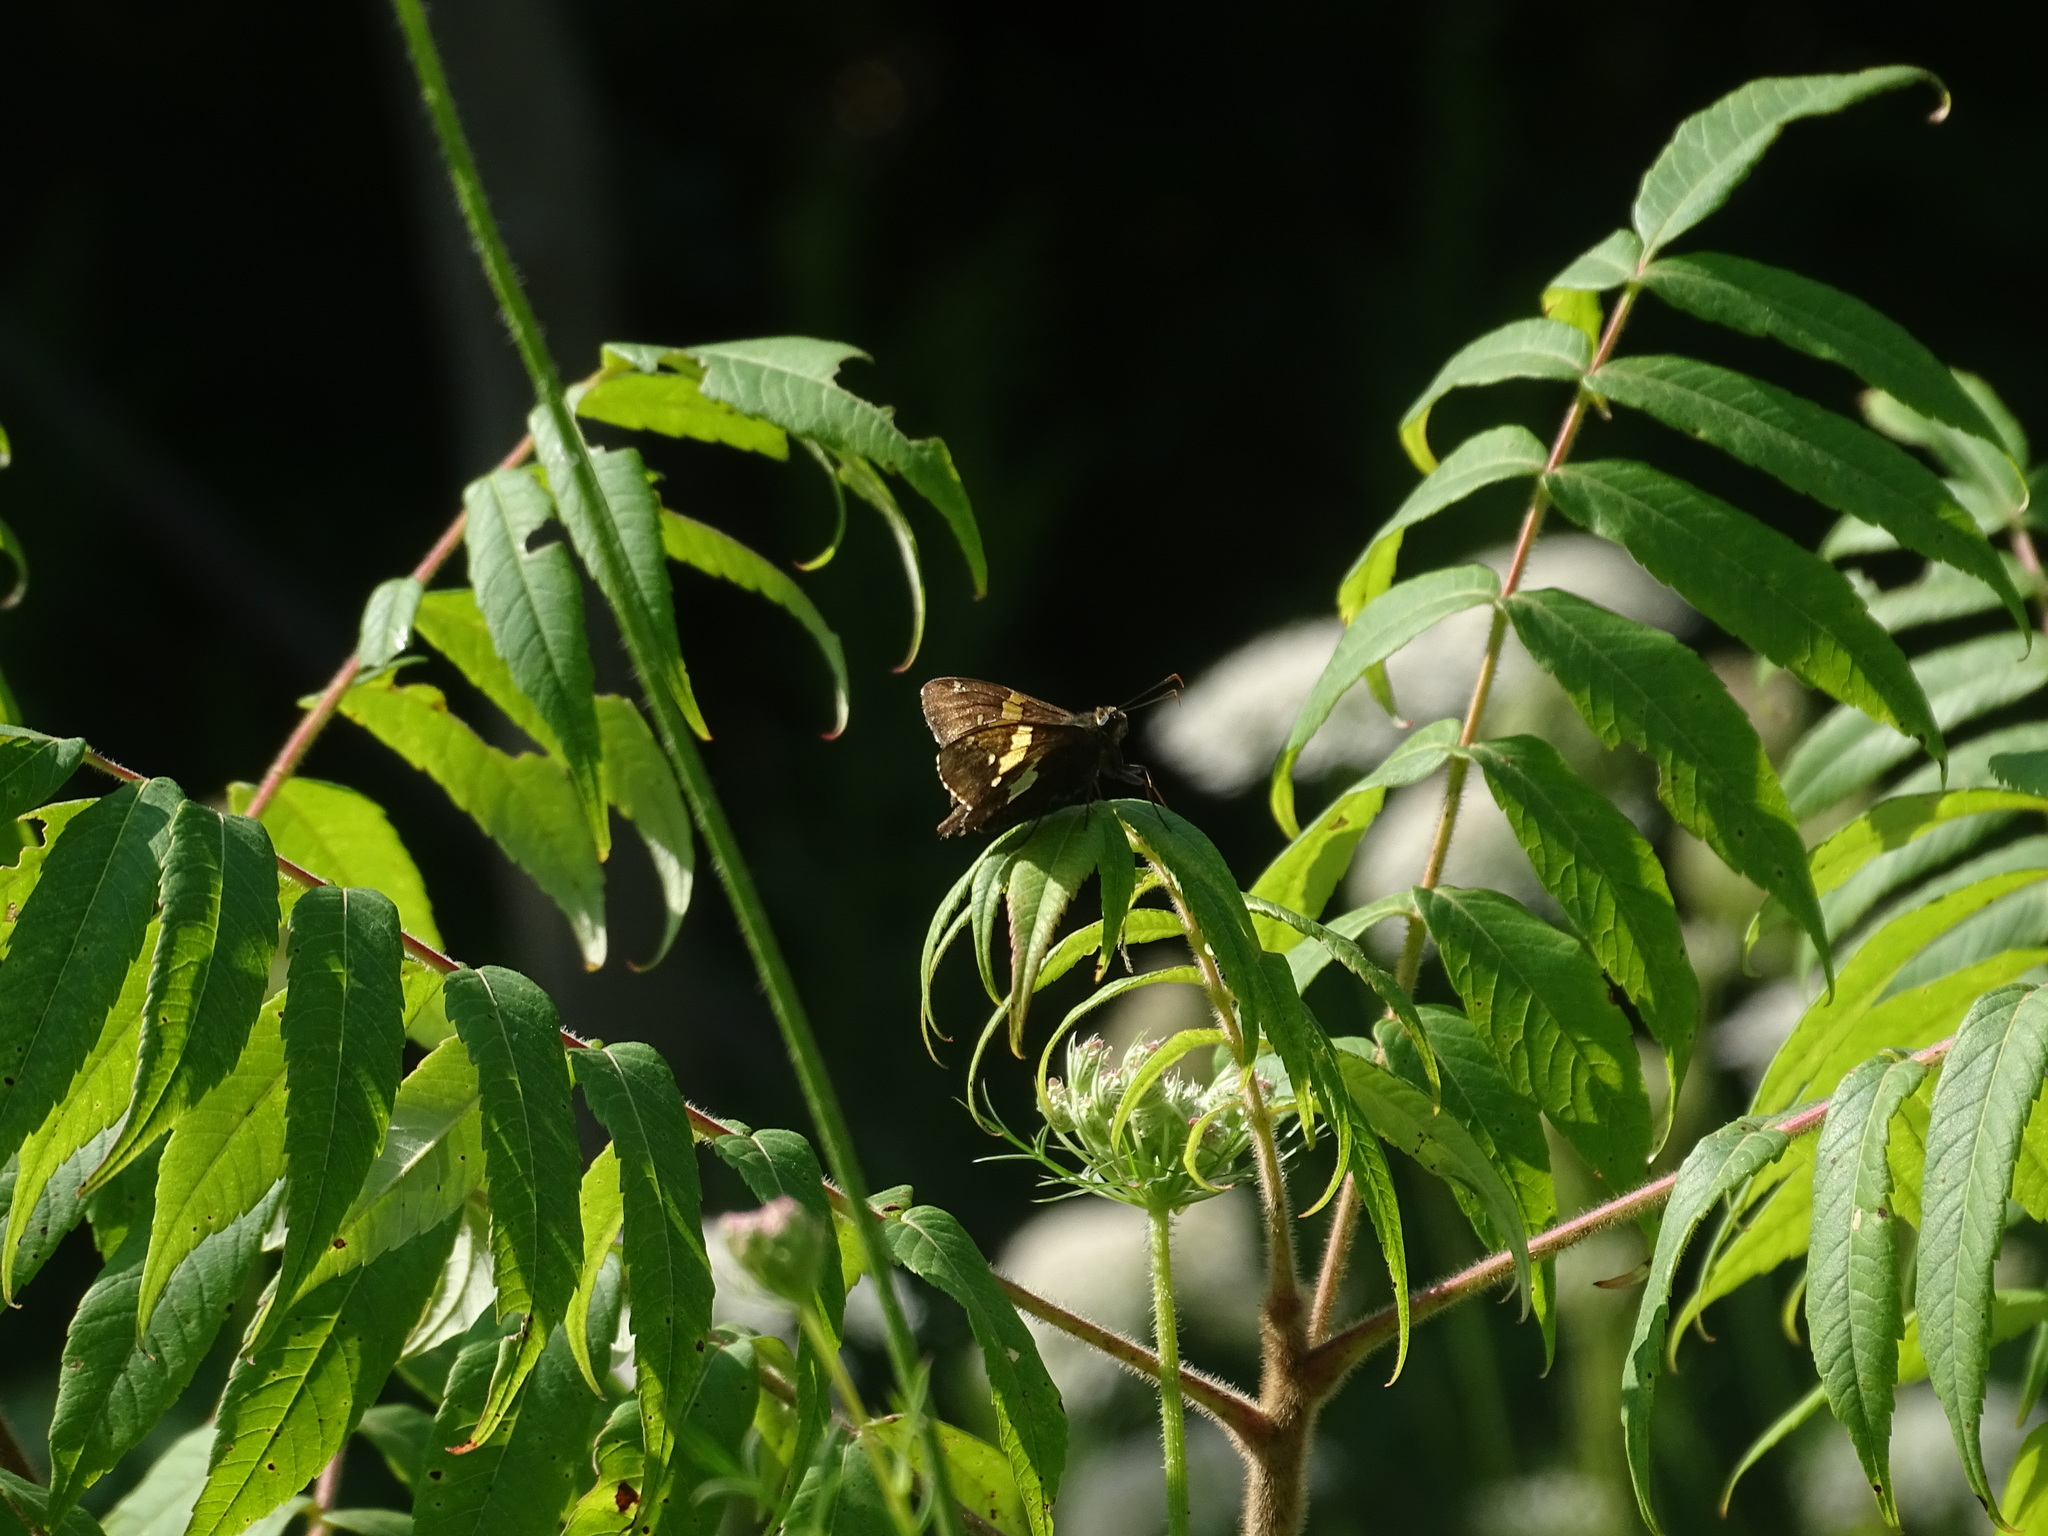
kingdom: Animalia
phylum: Arthropoda
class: Insecta
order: Lepidoptera
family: Hesperiidae
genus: Epargyreus
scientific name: Epargyreus clarus
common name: Silver-spotted skipper
